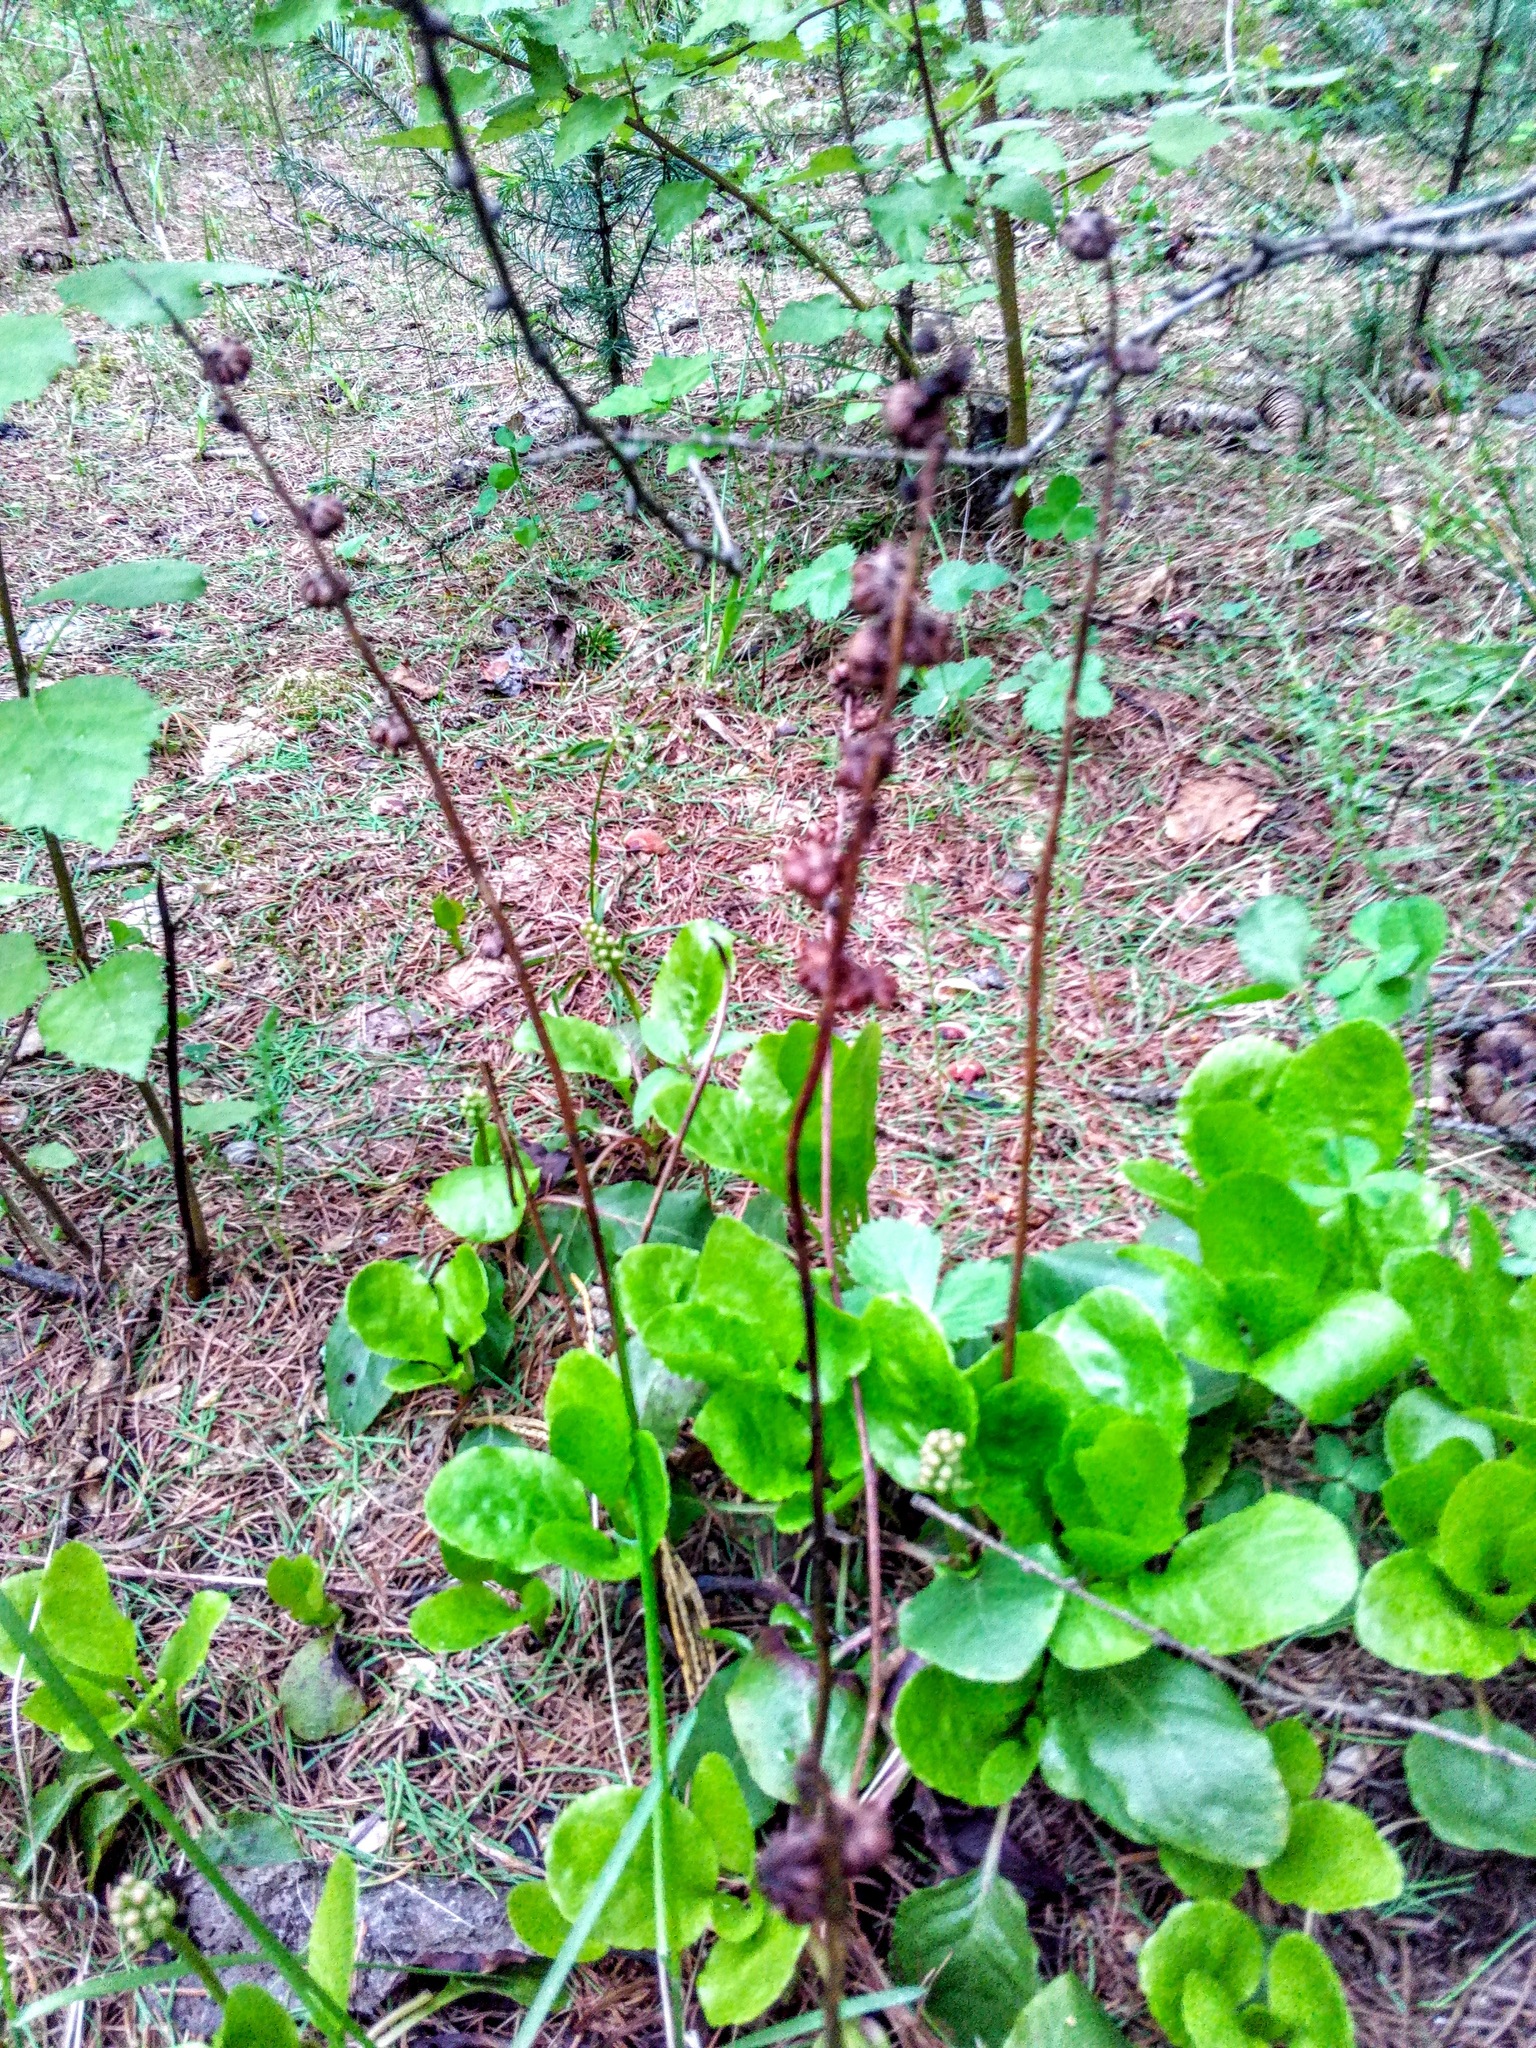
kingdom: Plantae
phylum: Tracheophyta
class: Magnoliopsida
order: Ericales
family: Ericaceae
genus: Pyrola
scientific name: Pyrola minor
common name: Common wintergreen
